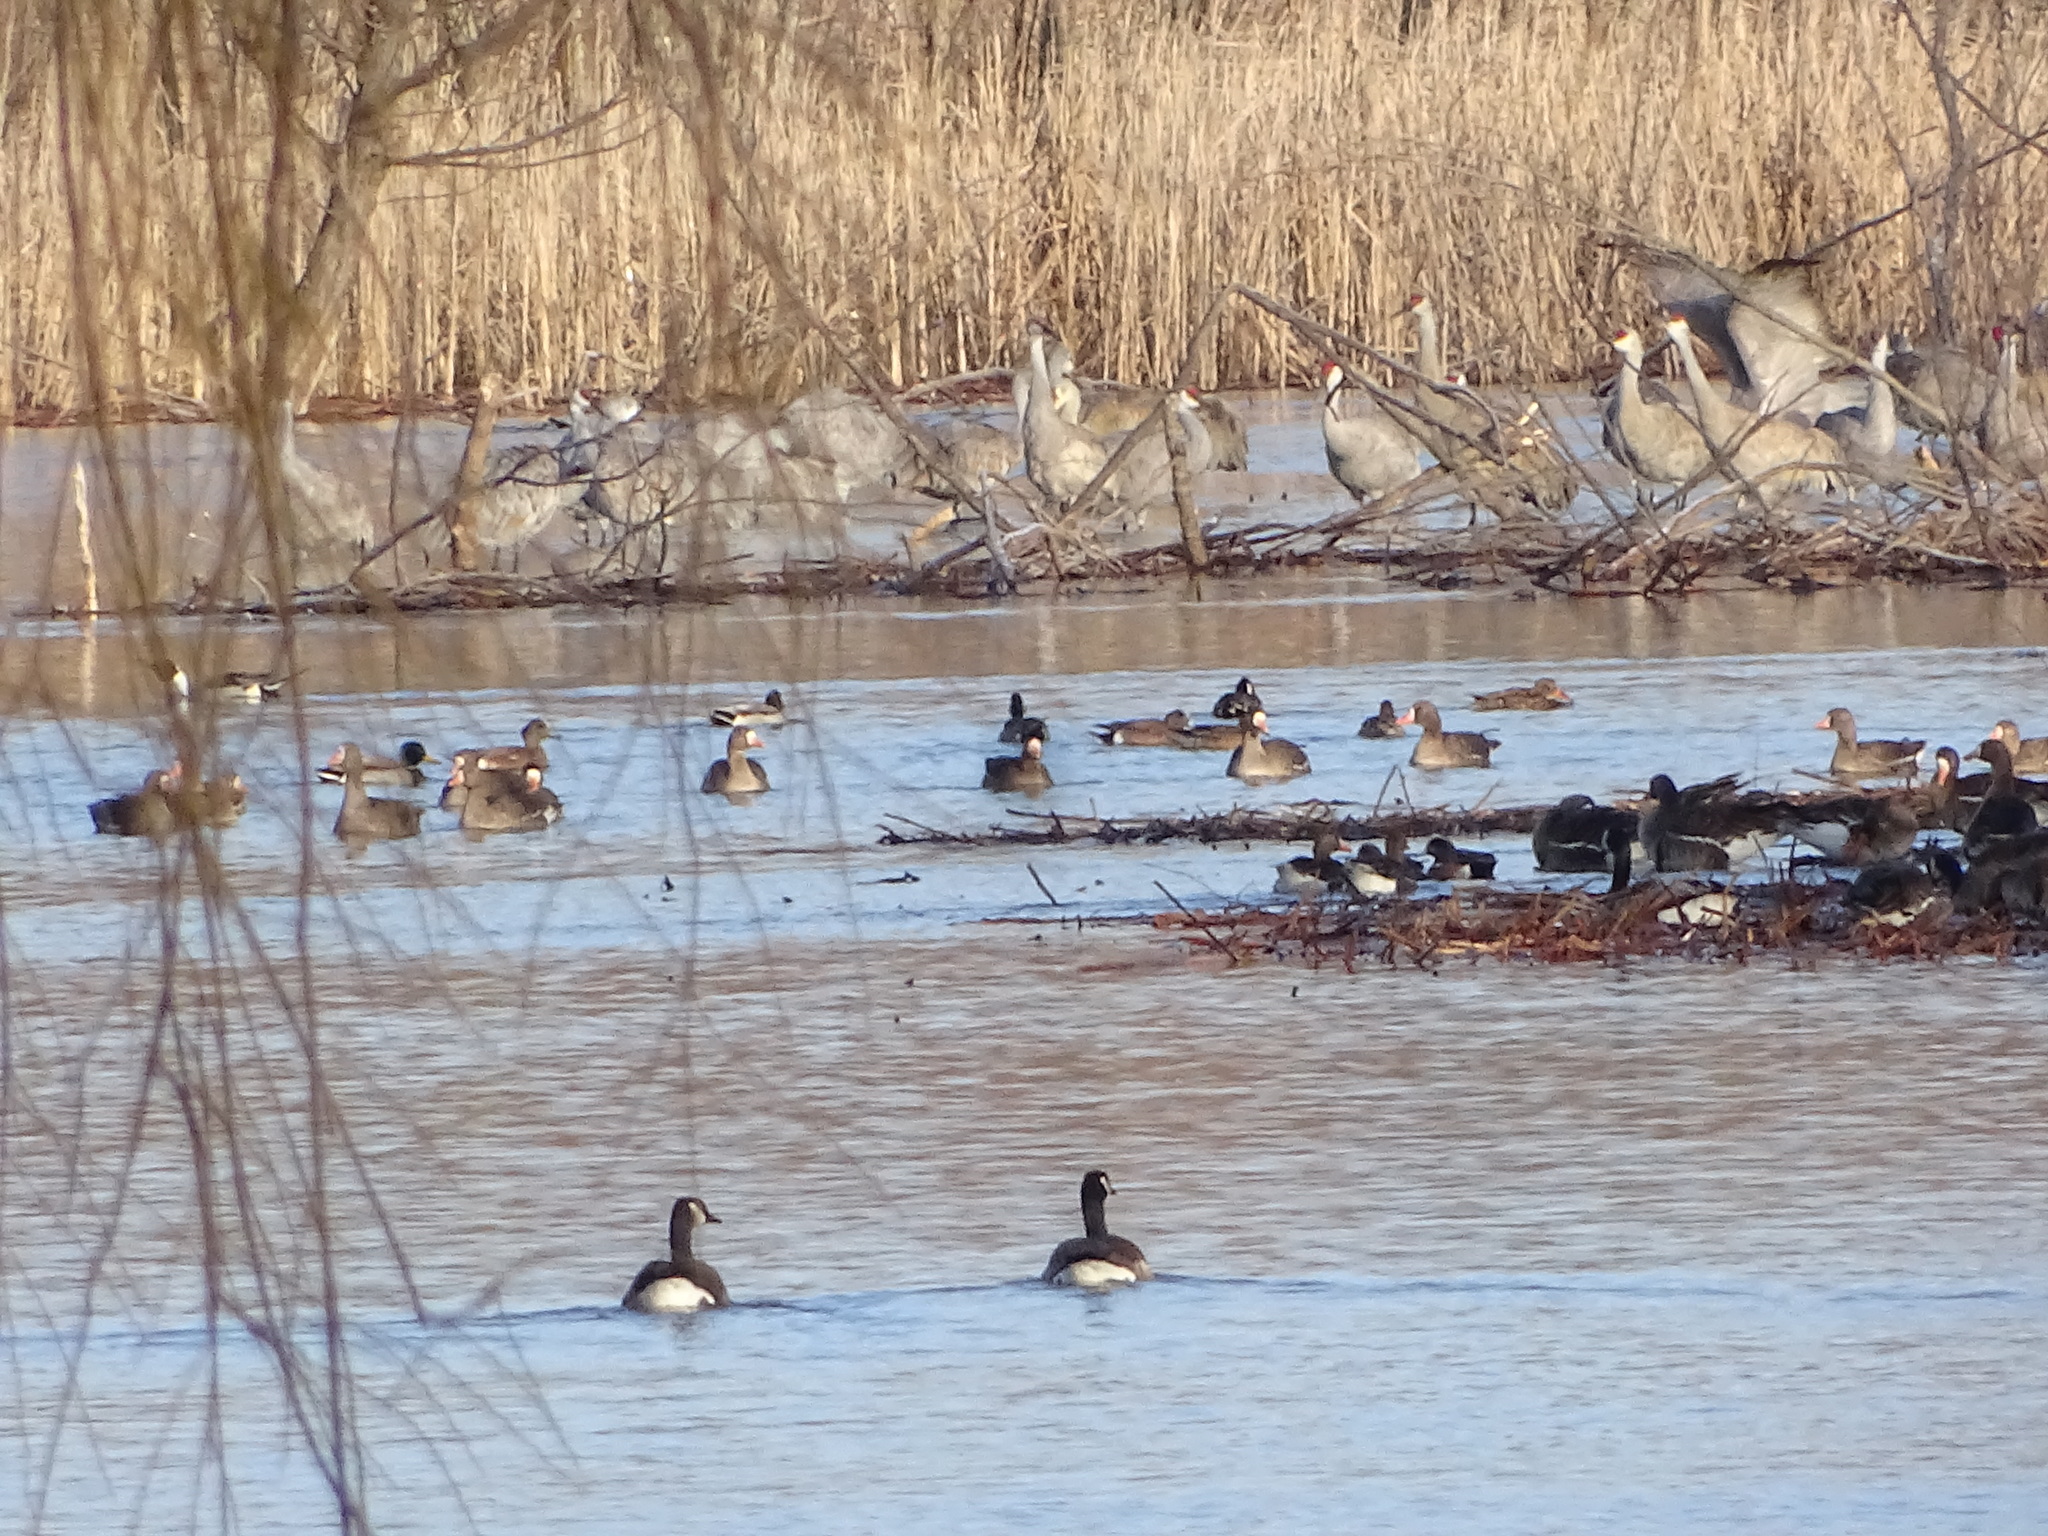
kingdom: Animalia
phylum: Chordata
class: Aves
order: Anseriformes
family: Anatidae
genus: Anser
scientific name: Anser albifrons
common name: Greater white-fronted goose
